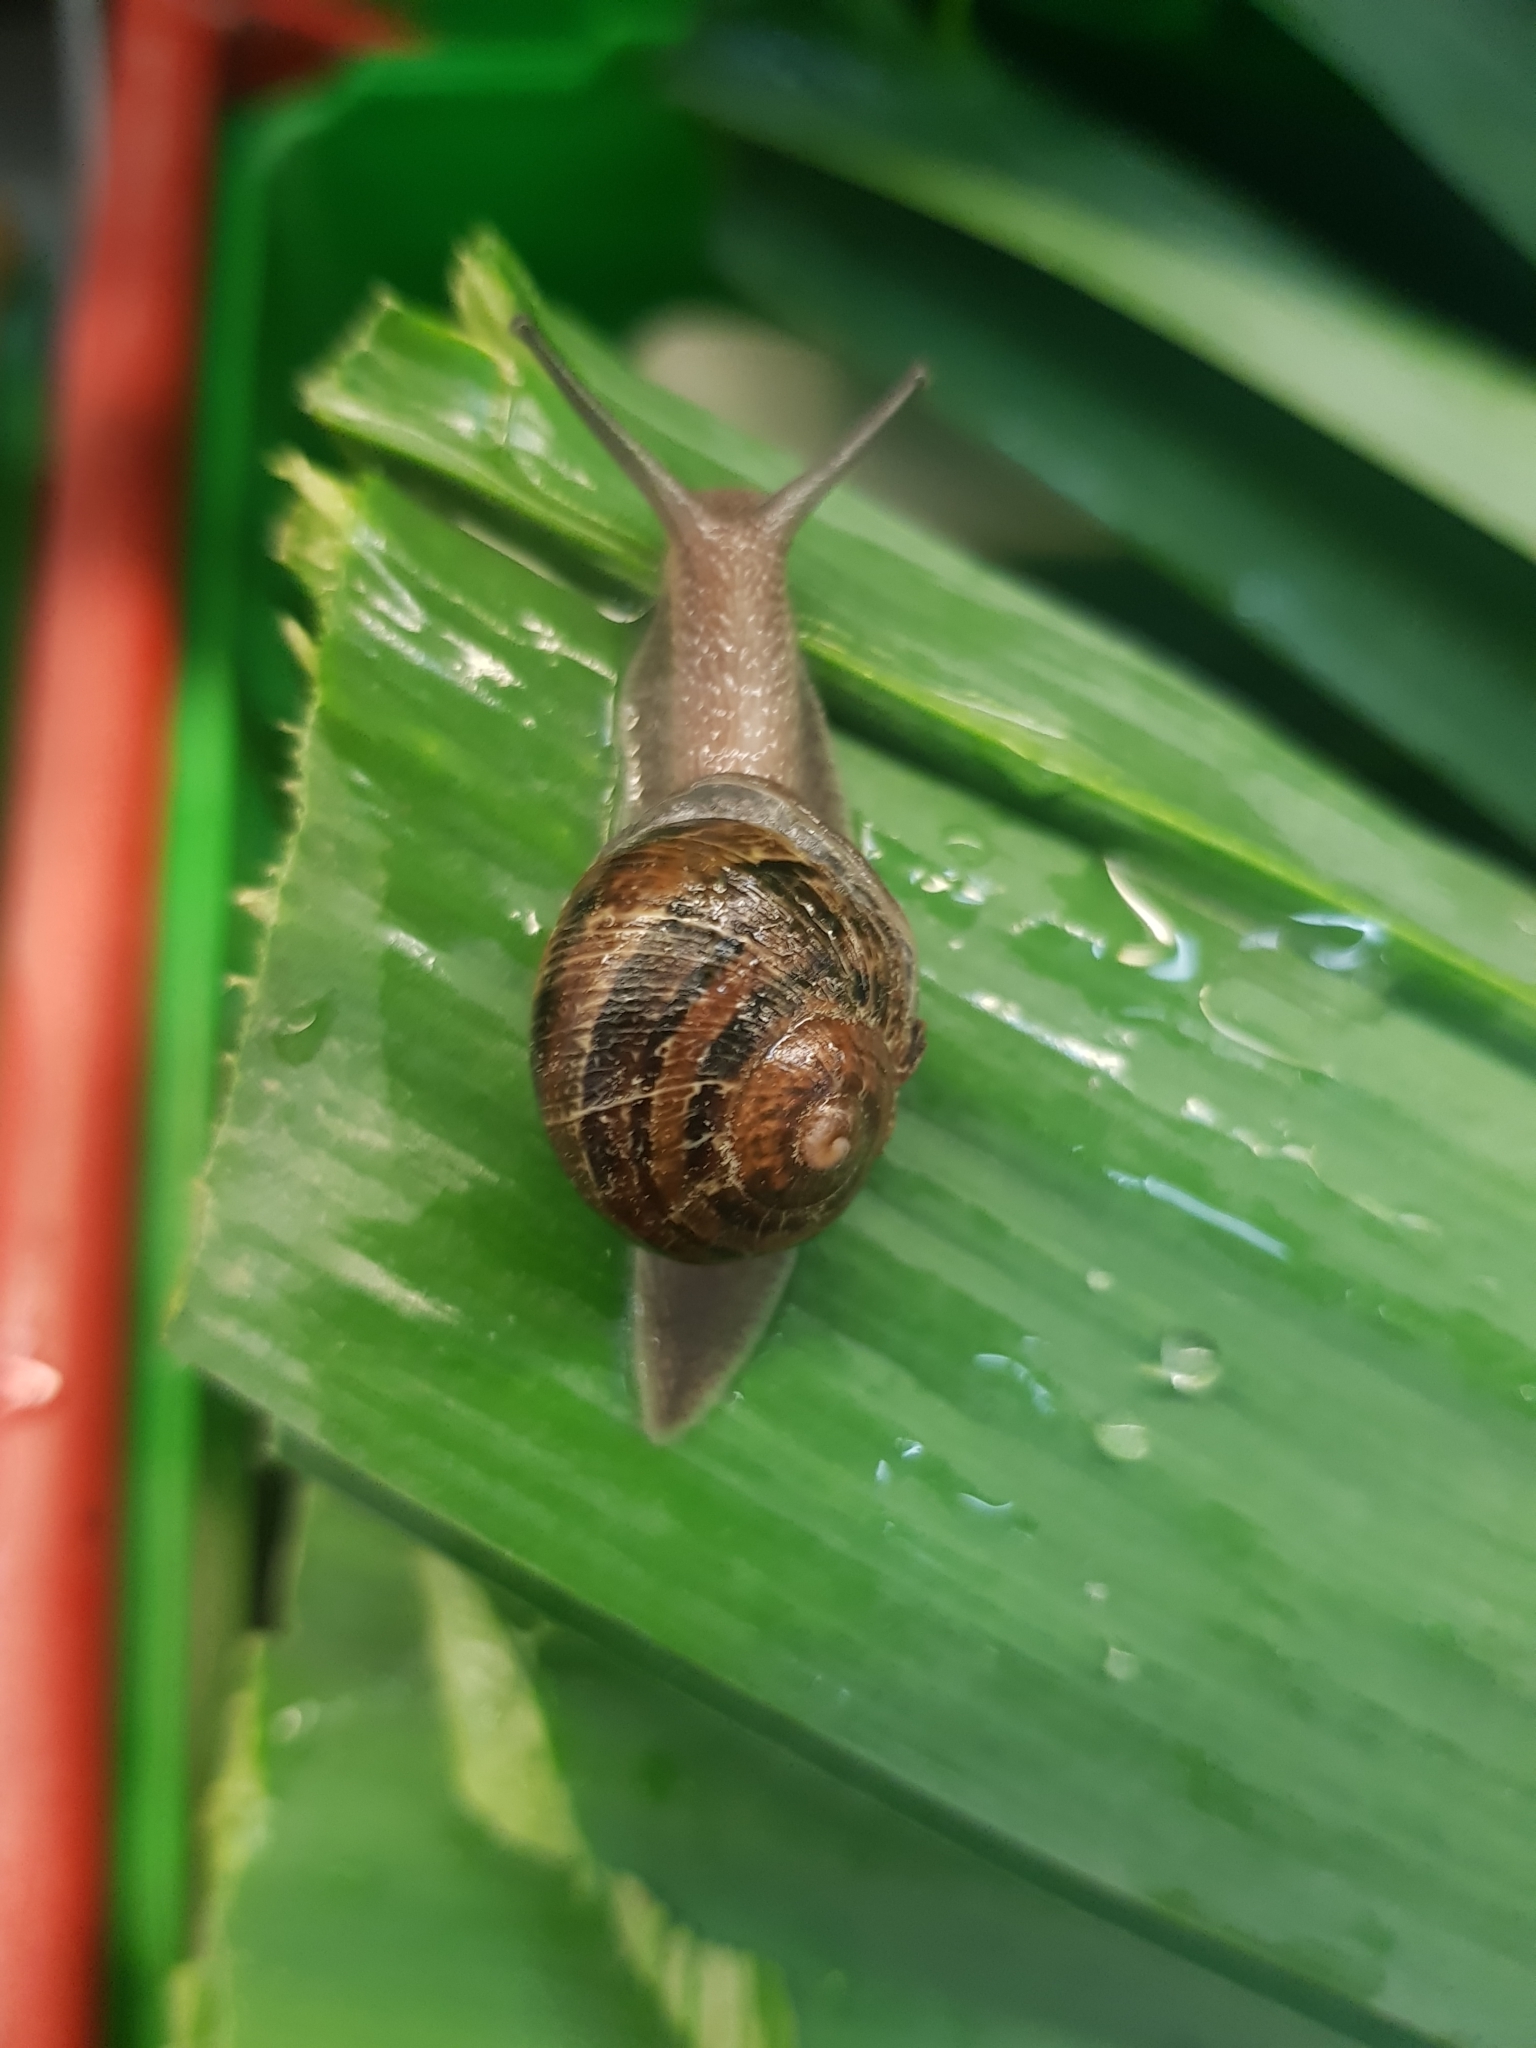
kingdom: Animalia
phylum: Mollusca
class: Gastropoda
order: Stylommatophora
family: Helicidae
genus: Cornu
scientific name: Cornu aspersum
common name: Brown garden snail
